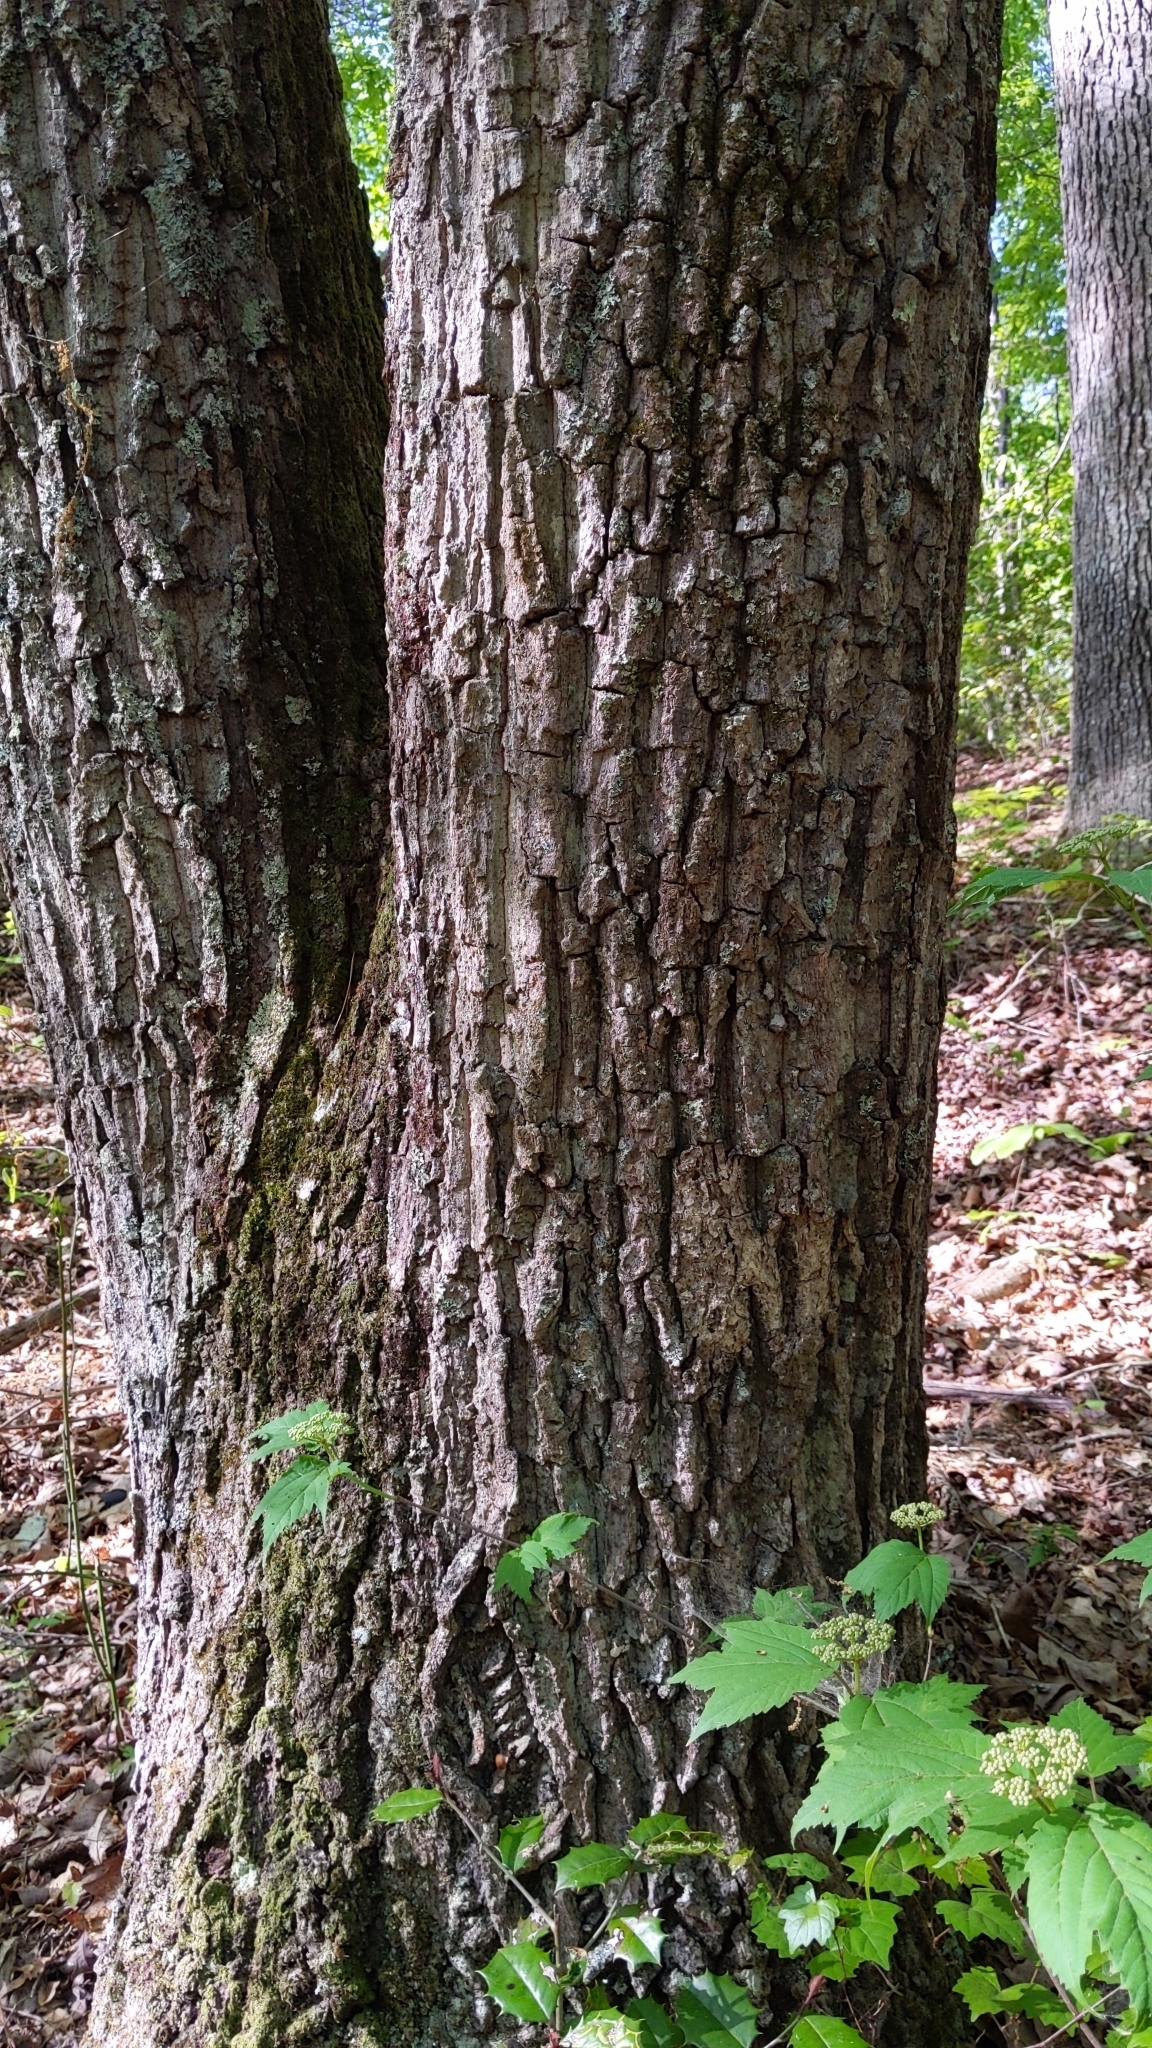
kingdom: Plantae
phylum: Tracheophyta
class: Magnoliopsida
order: Fagales
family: Fagaceae
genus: Quercus
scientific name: Quercus montana
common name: Chestnut oak
